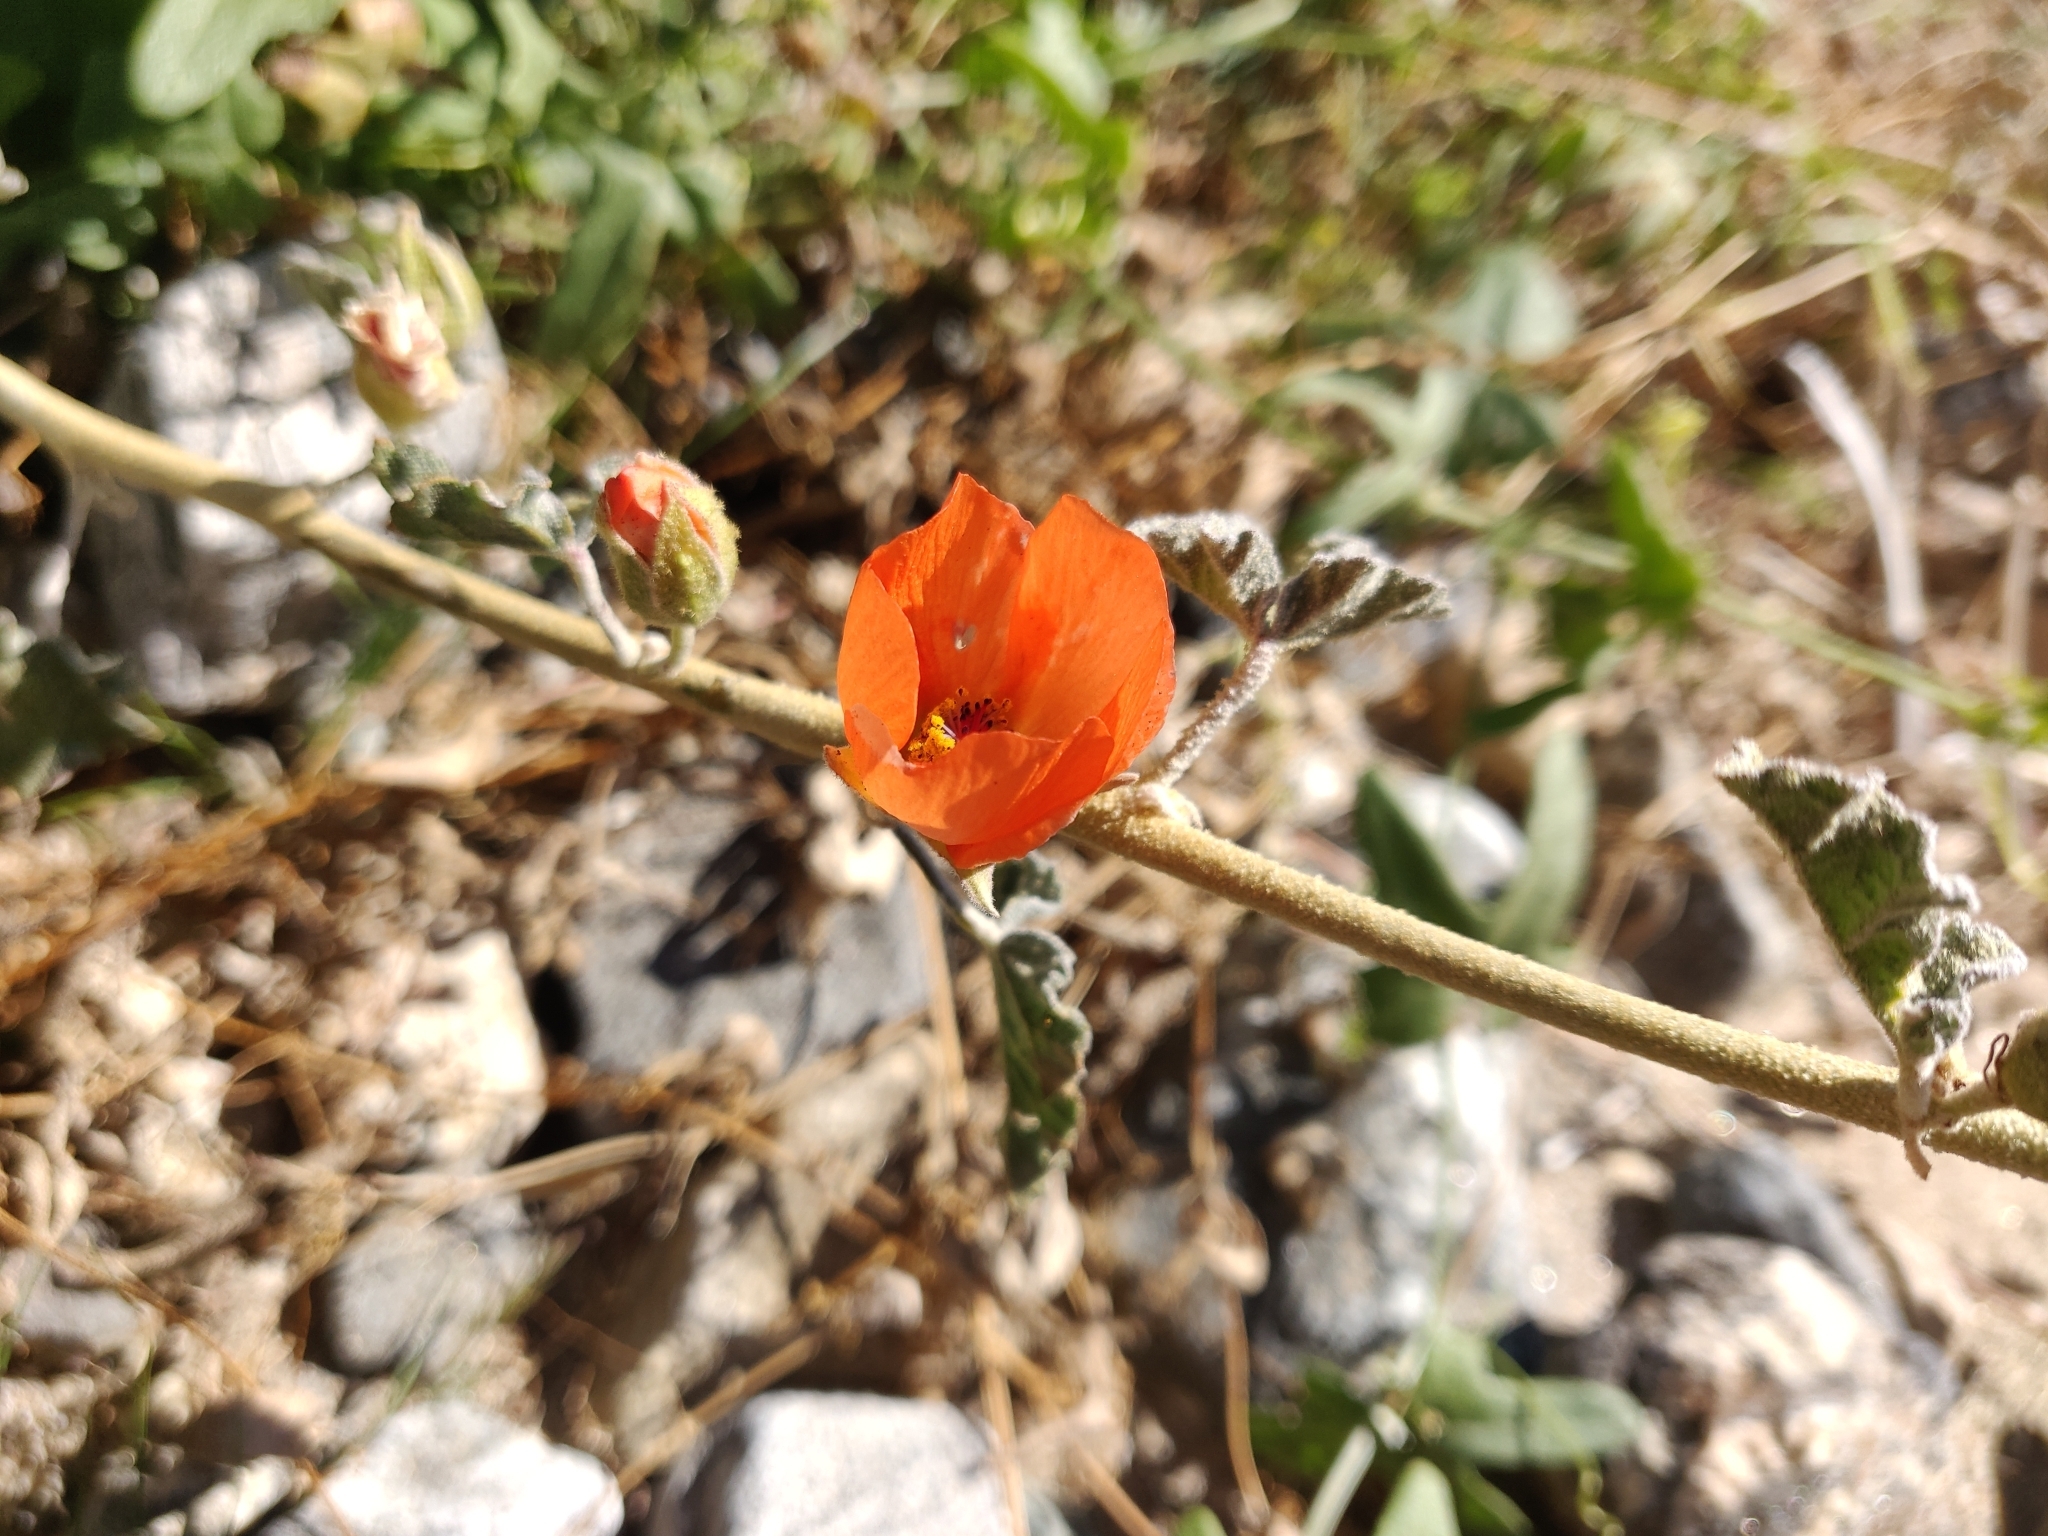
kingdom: Plantae
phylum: Tracheophyta
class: Magnoliopsida
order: Malvales
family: Malvaceae
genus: Sphaeralcea
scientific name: Sphaeralcea ambigua
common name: Apricot globe-mallow
